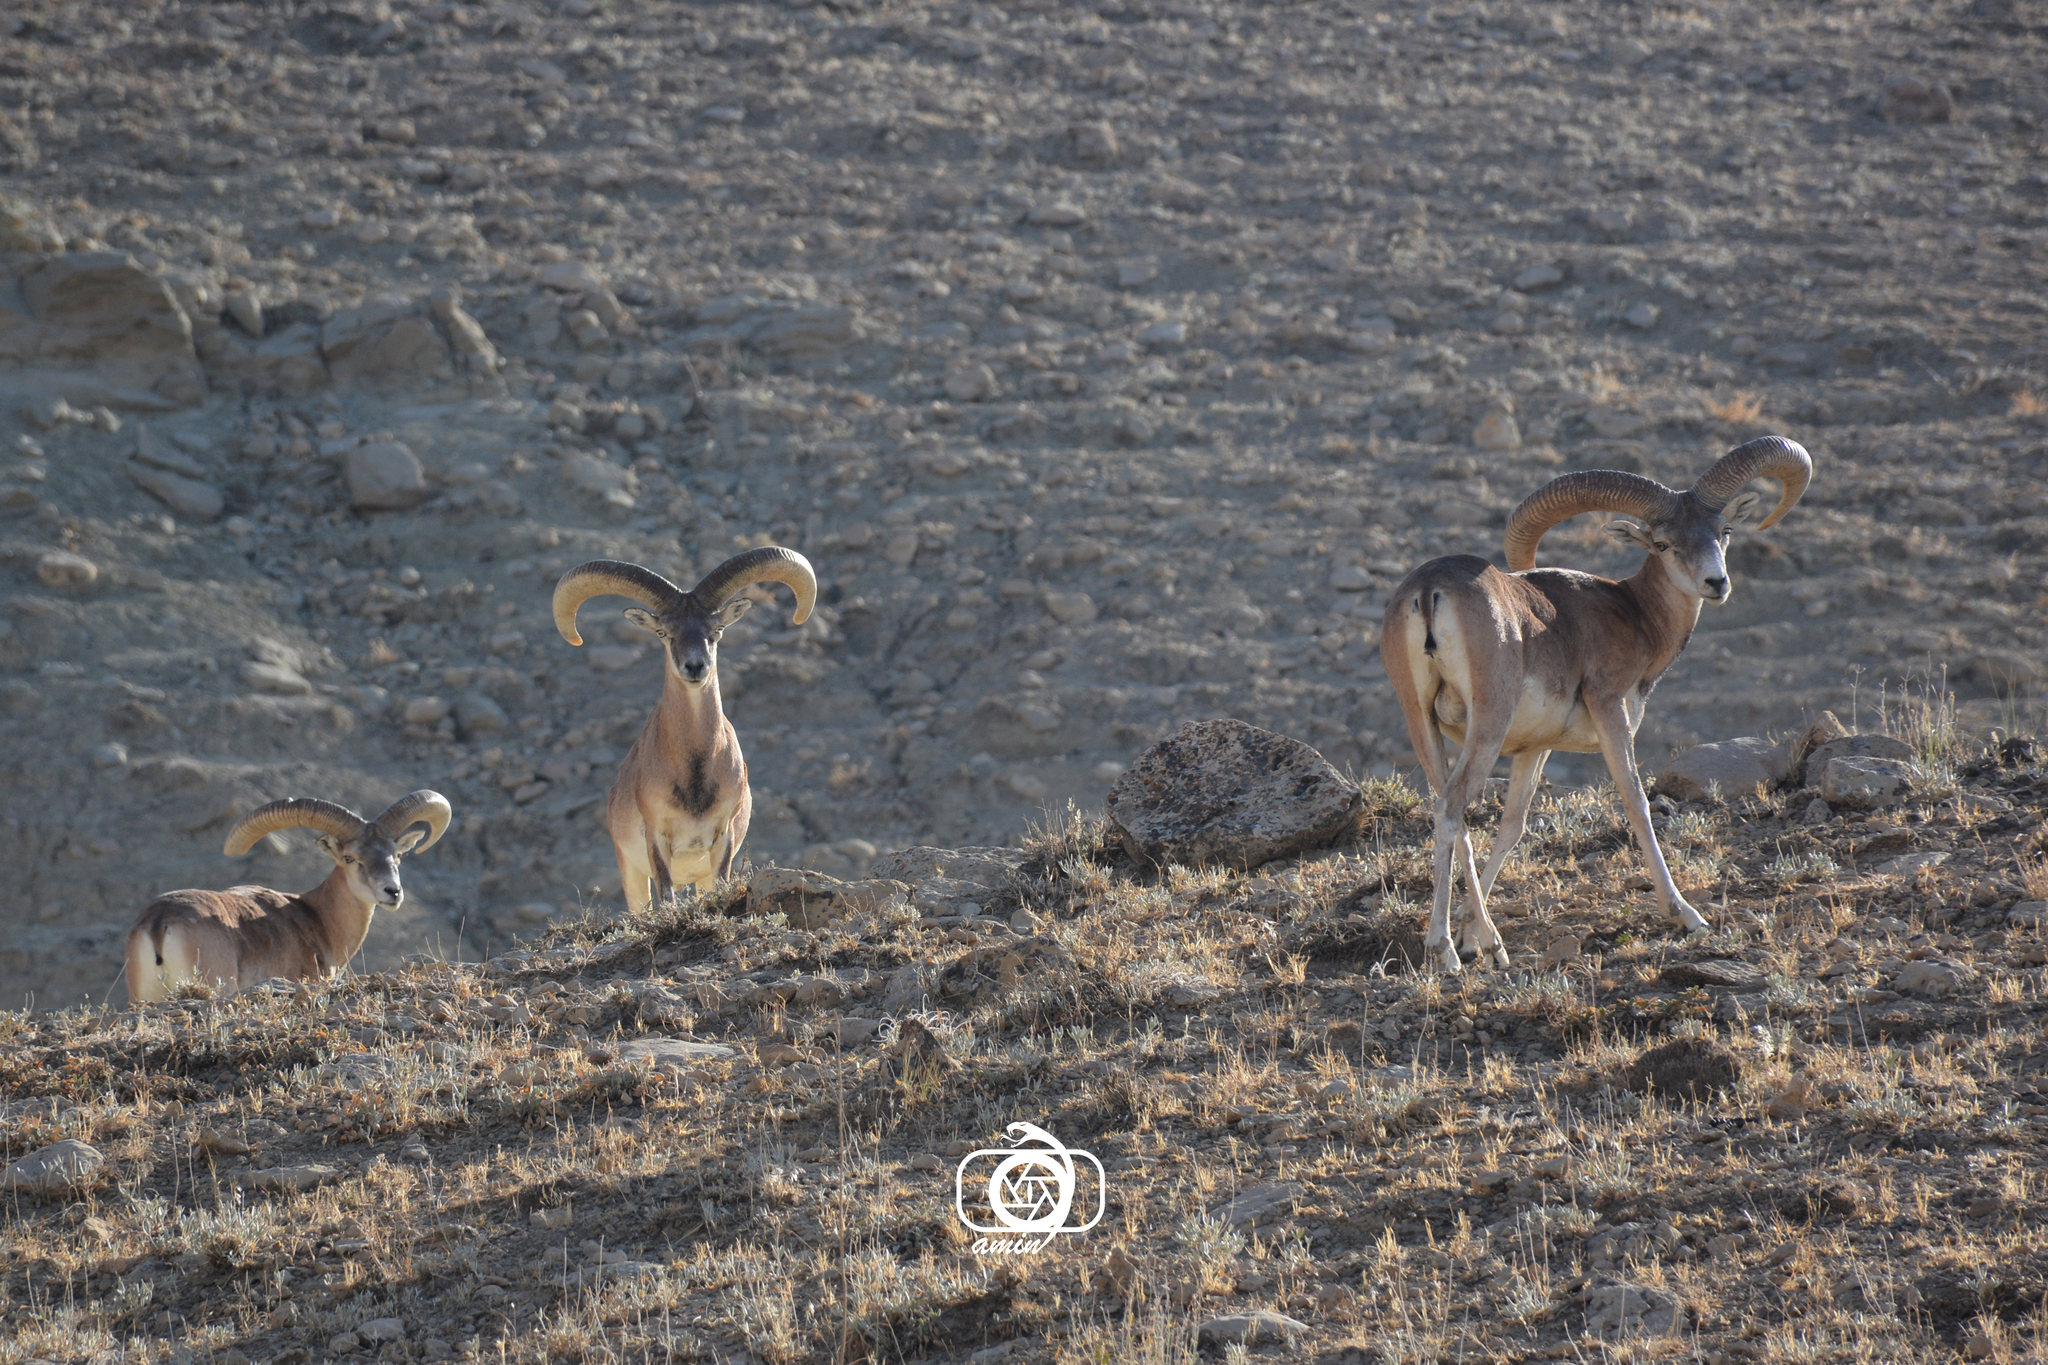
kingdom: Animalia
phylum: Chordata
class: Mammalia
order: Artiodactyla
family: Bovidae
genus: Ovis
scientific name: Ovis gmelini
